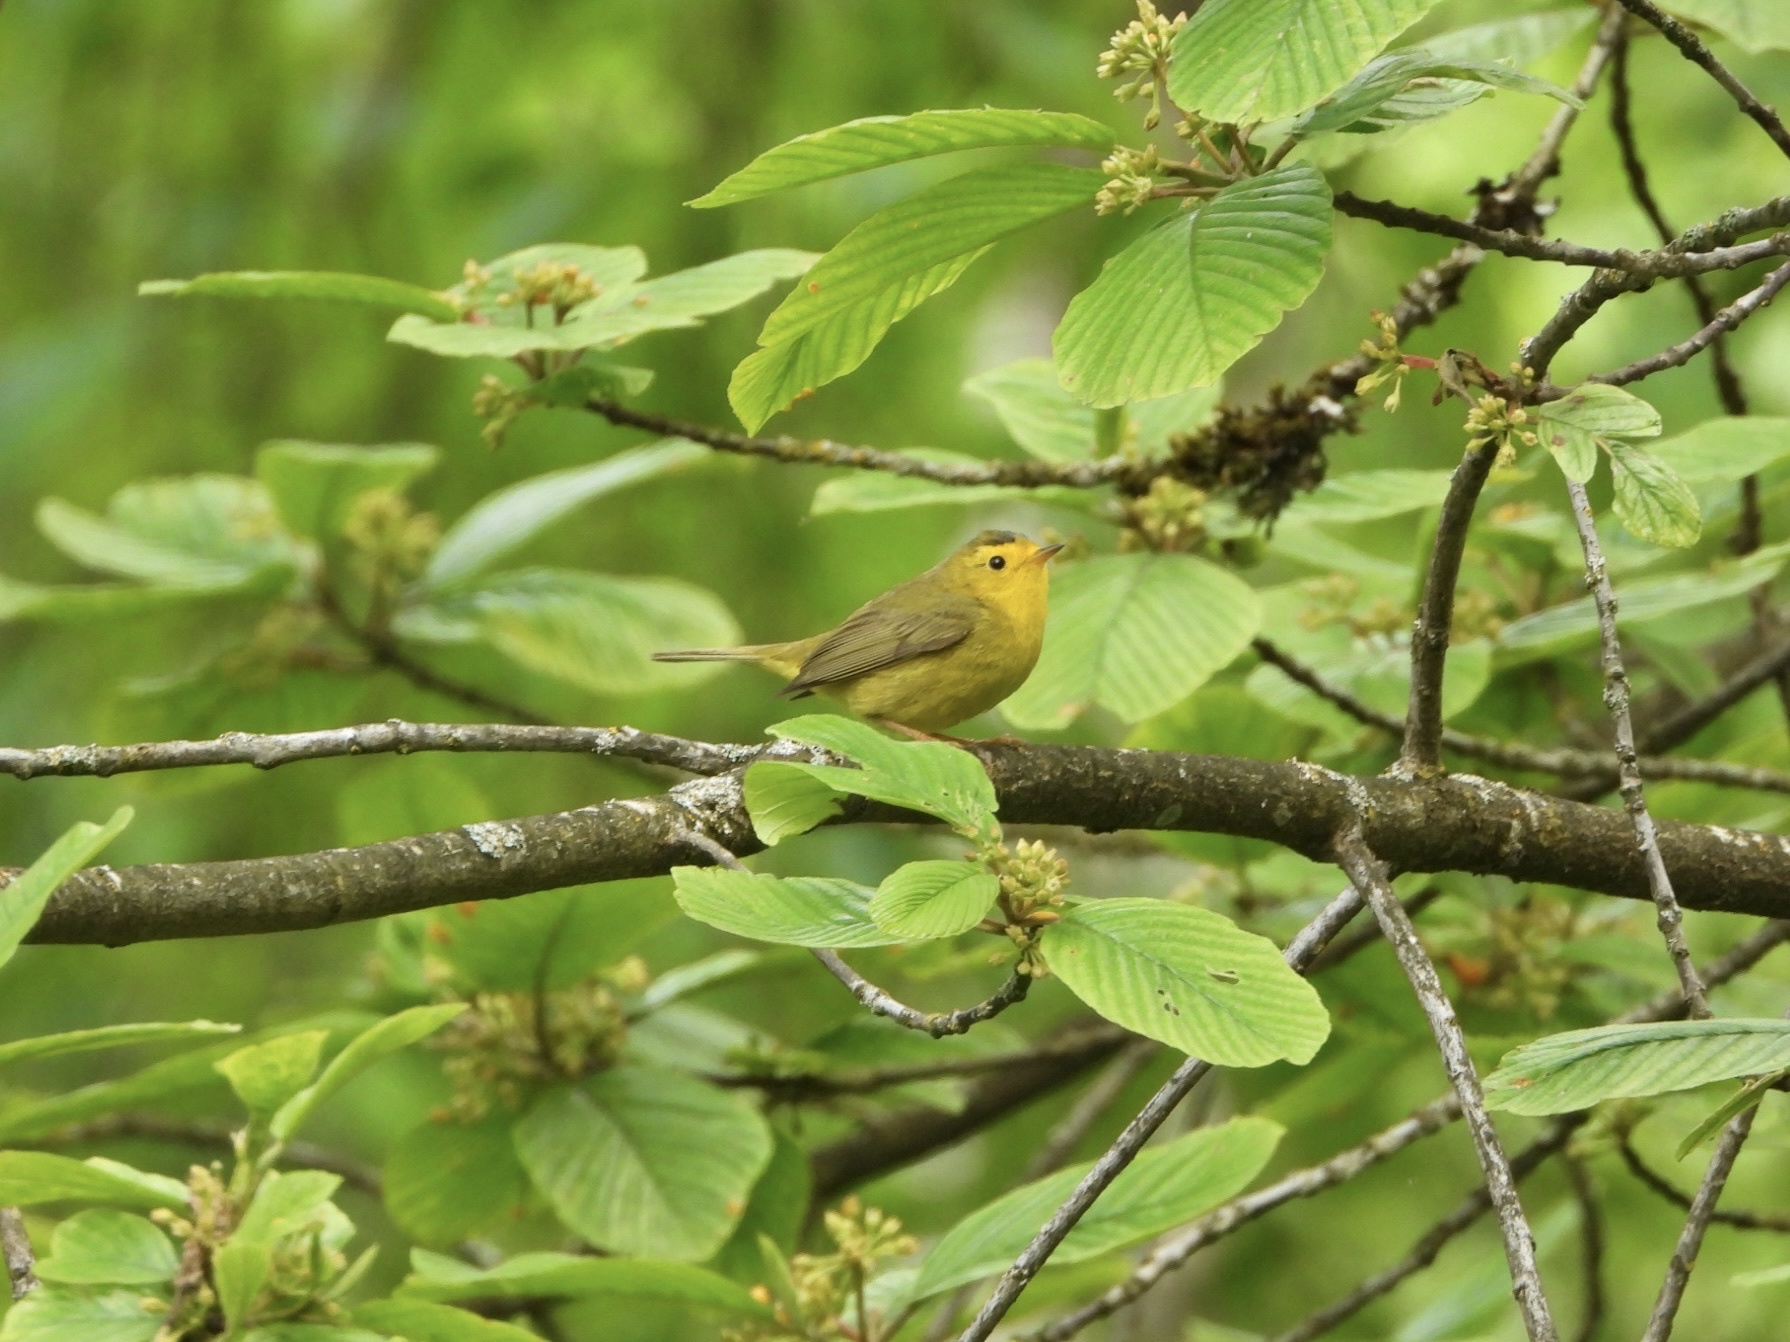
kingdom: Animalia
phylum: Chordata
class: Aves
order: Passeriformes
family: Parulidae
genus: Cardellina
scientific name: Cardellina pusilla
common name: Wilson's warbler
